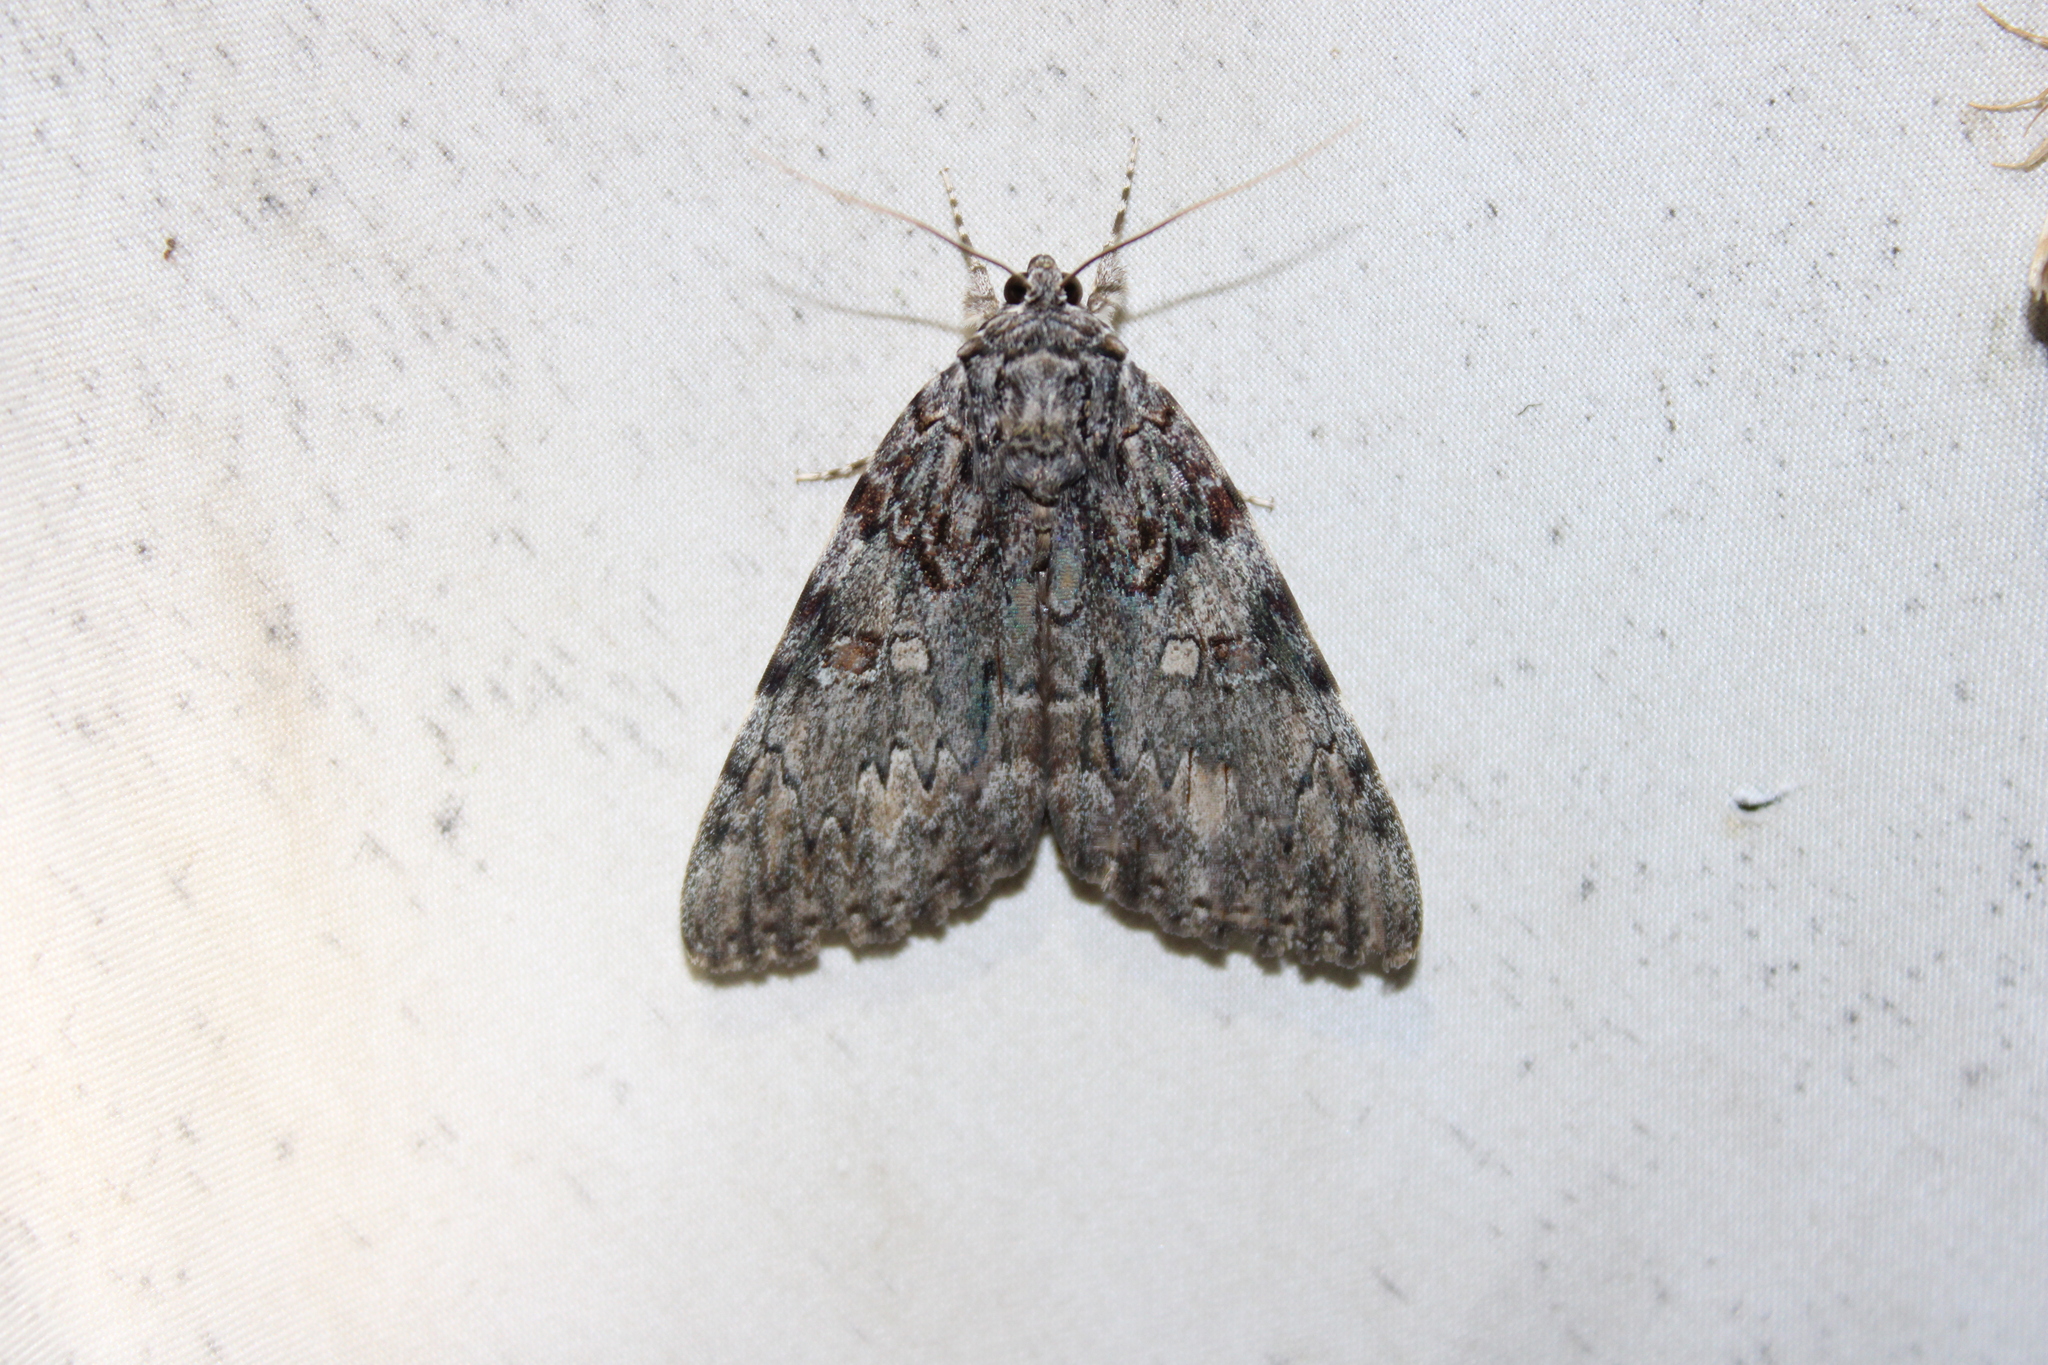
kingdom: Animalia
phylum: Arthropoda
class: Insecta
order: Lepidoptera
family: Erebidae
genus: Catocala
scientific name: Catocala palaeogama
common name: Oldwife underwing
